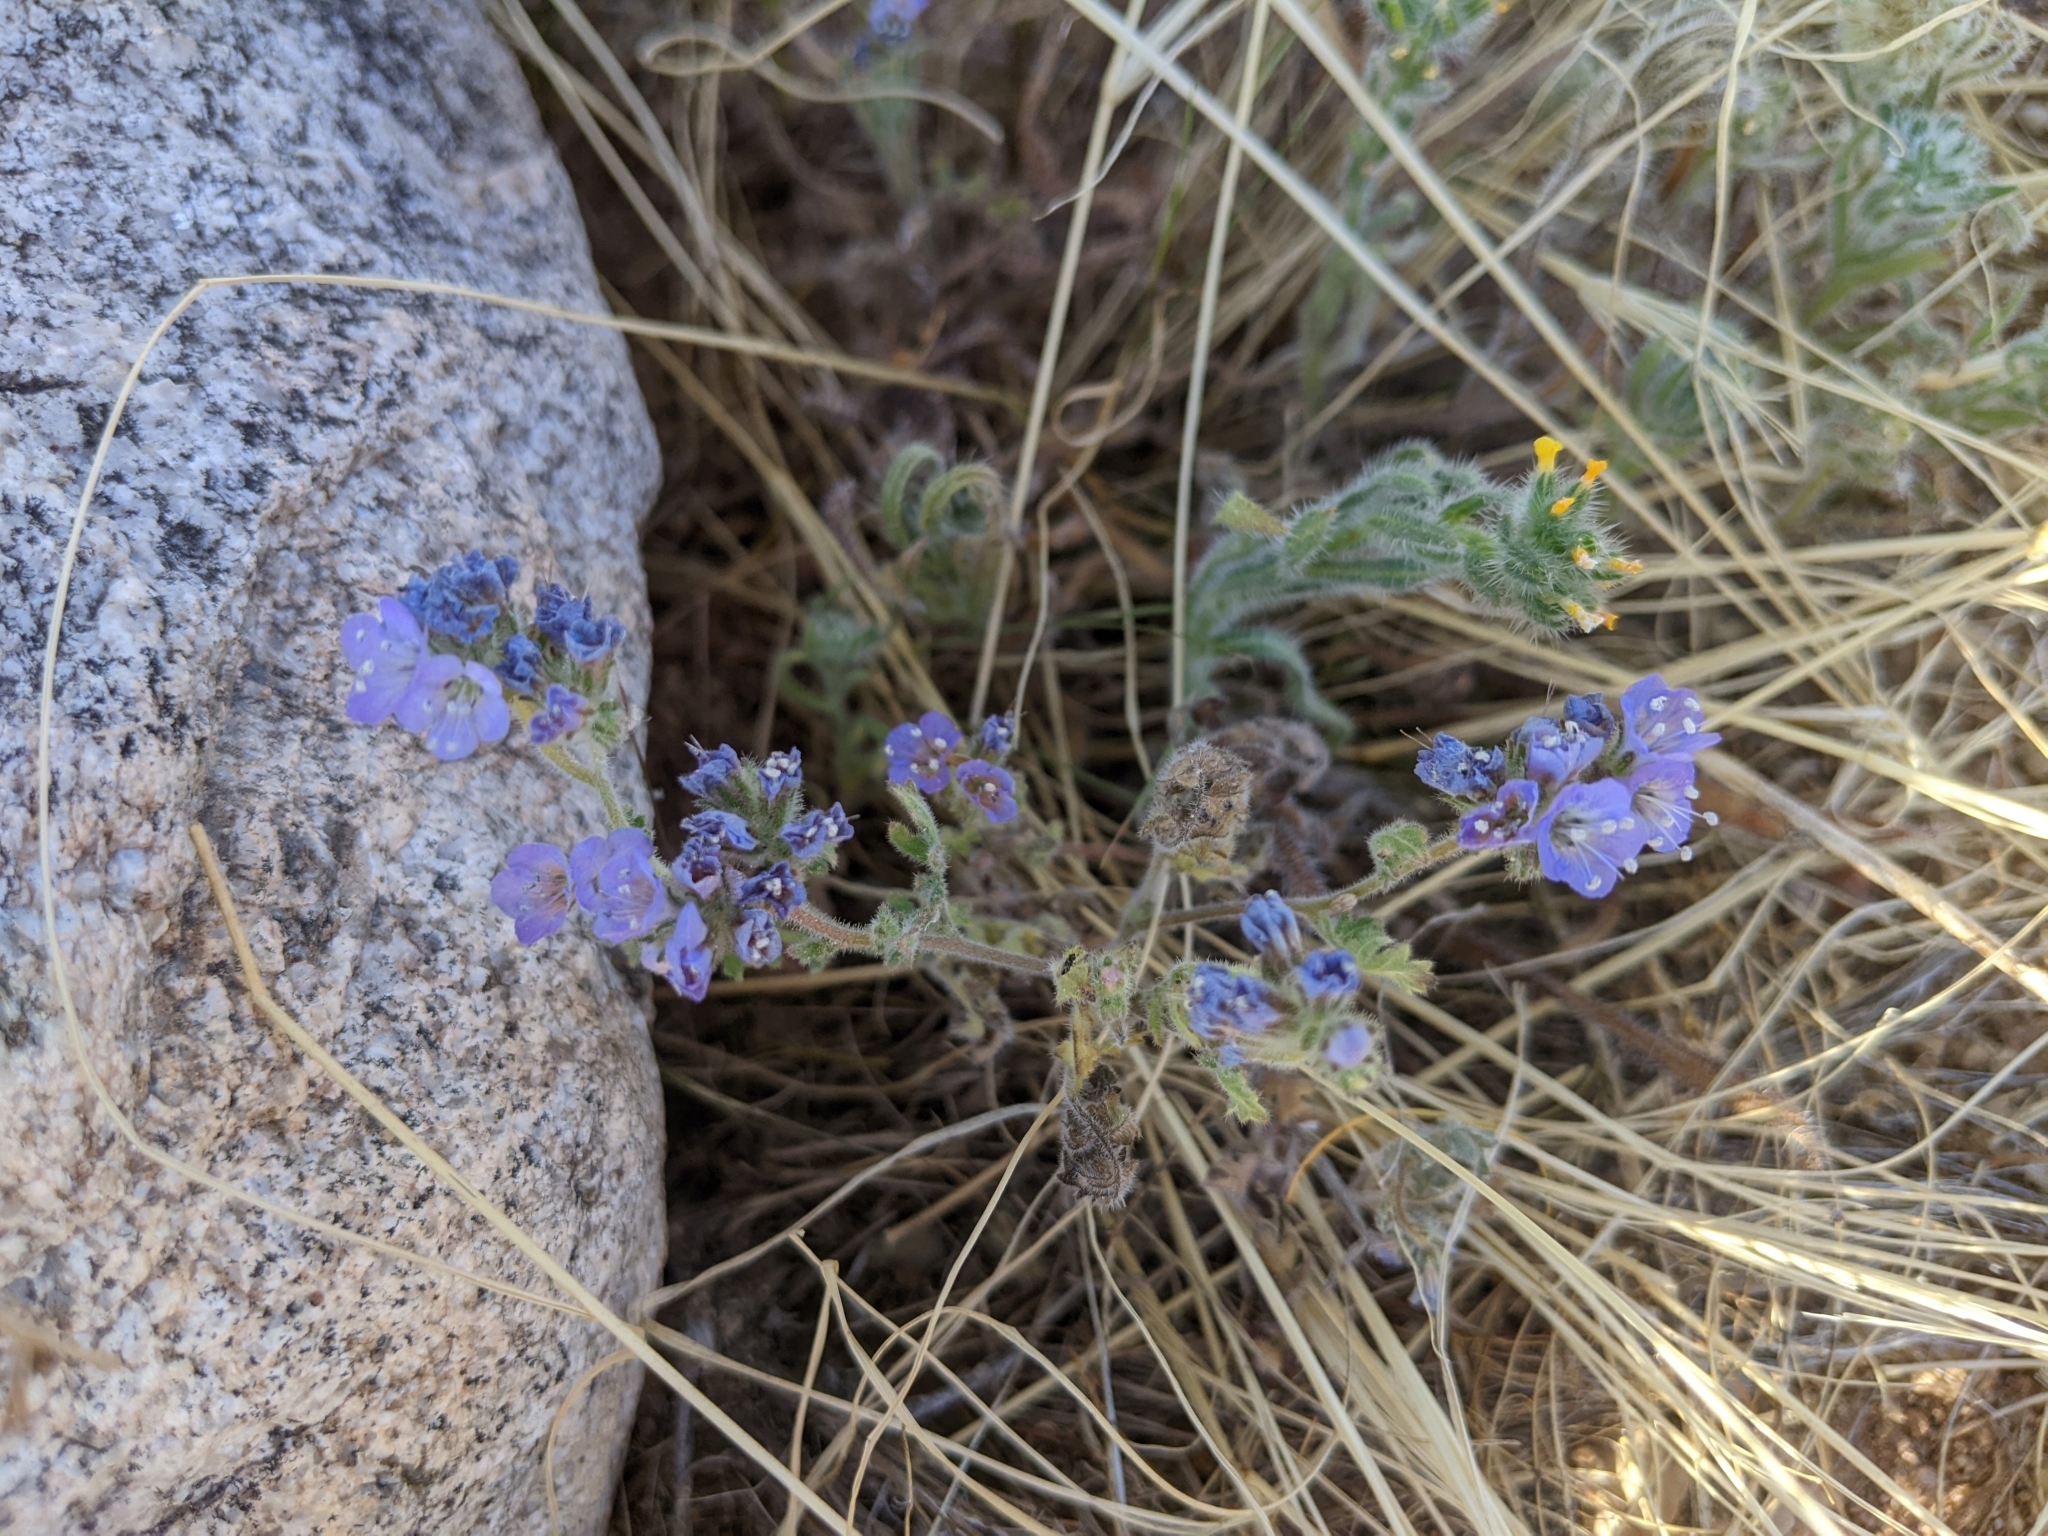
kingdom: Plantae
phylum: Tracheophyta
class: Magnoliopsida
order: Boraginales
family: Hydrophyllaceae
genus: Phacelia
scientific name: Phacelia distans
